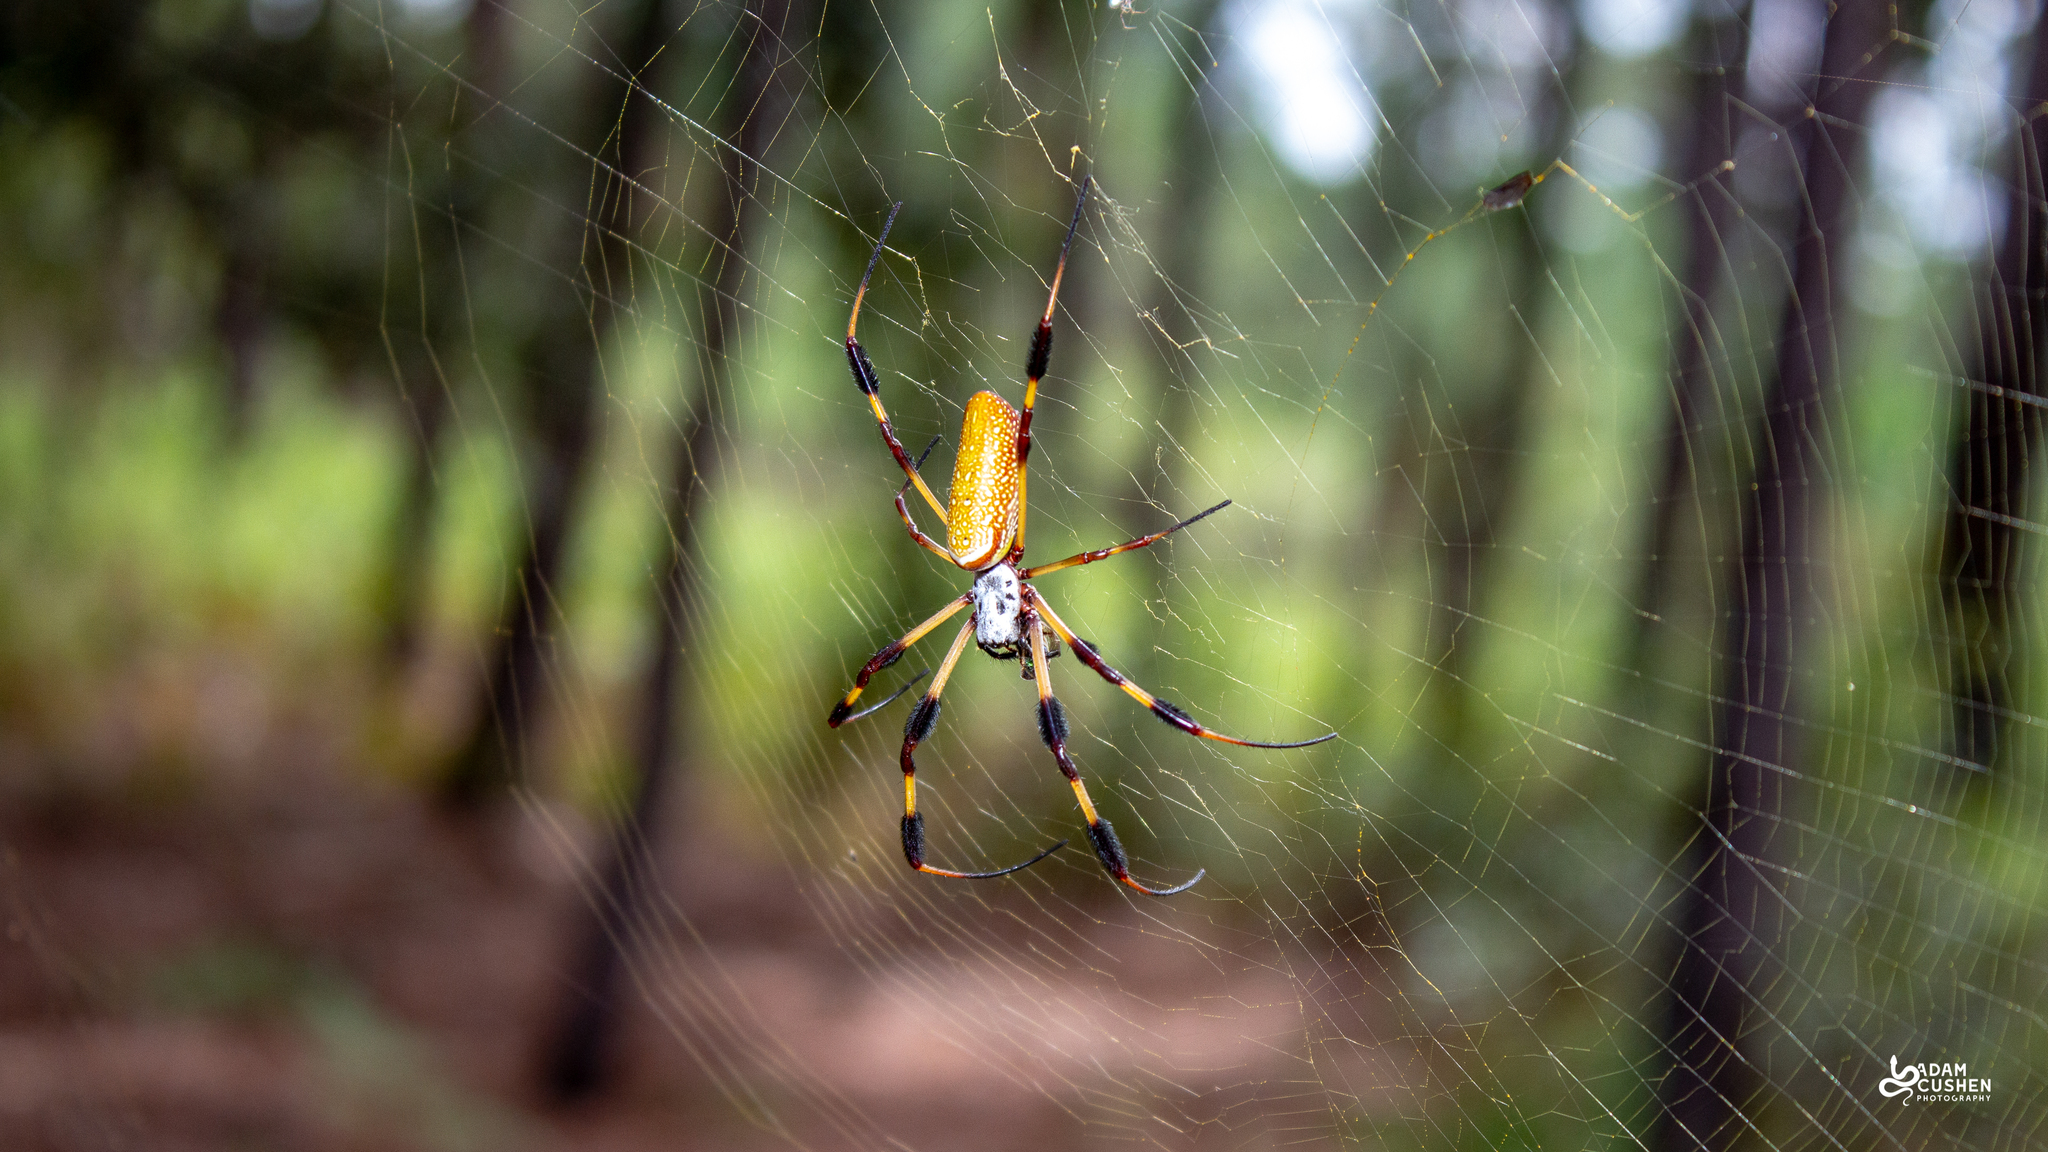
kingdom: Animalia
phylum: Arthropoda
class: Arachnida
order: Araneae
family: Araneidae
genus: Trichonephila
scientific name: Trichonephila clavipes
